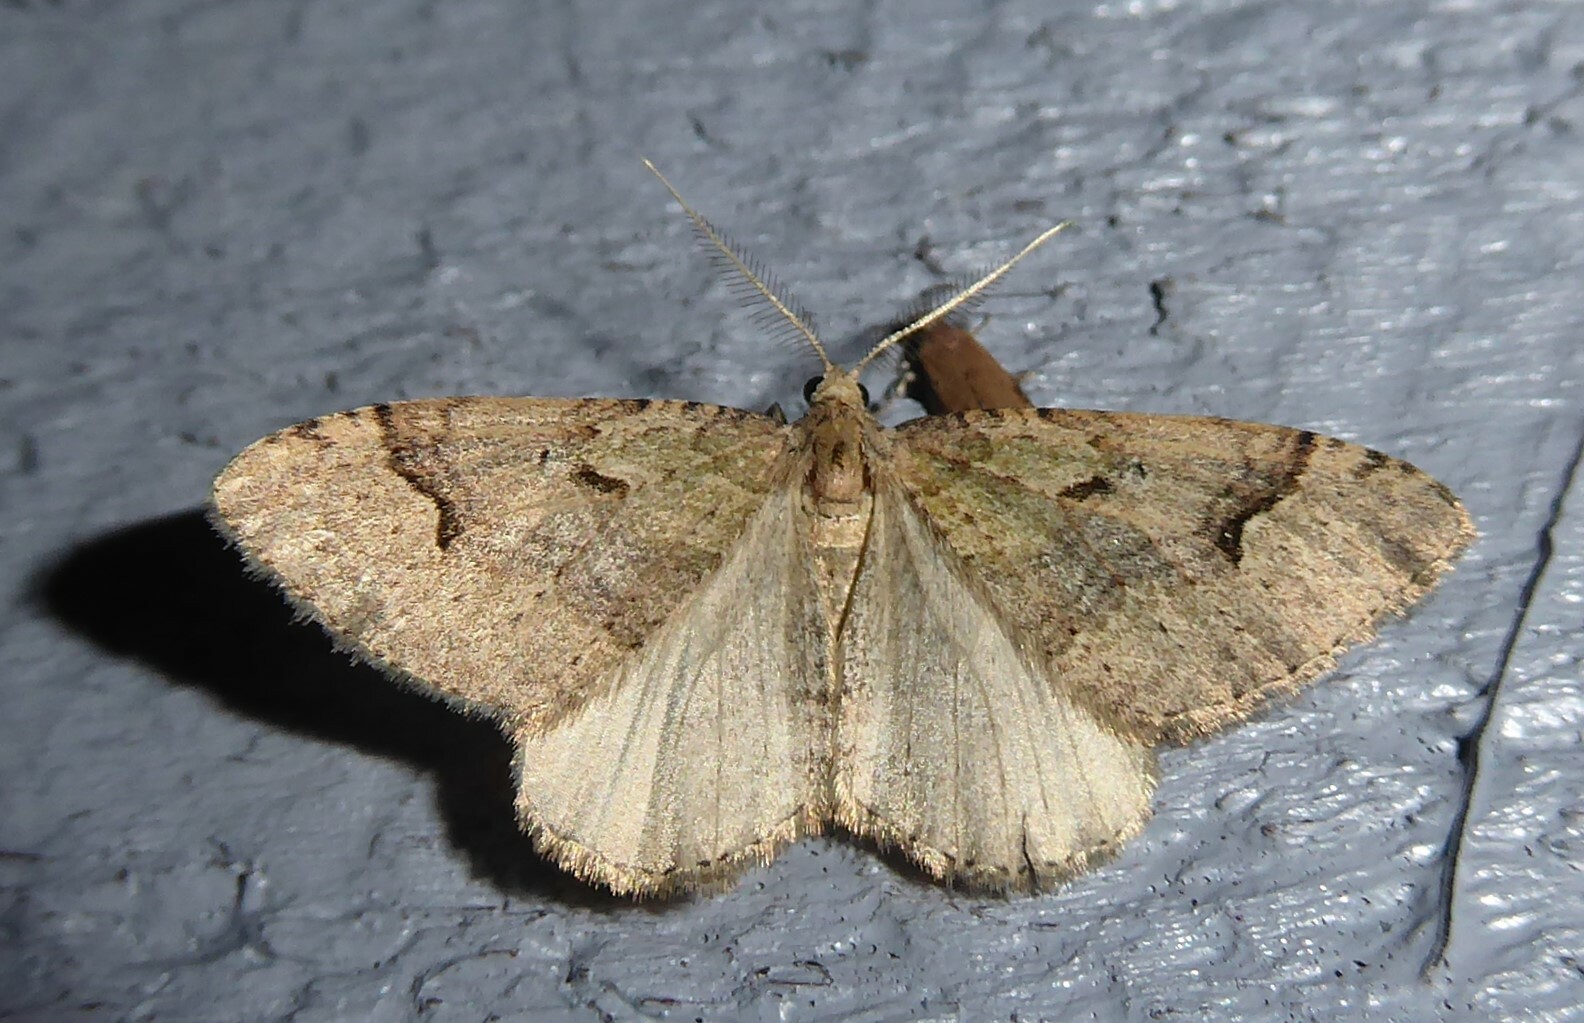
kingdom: Animalia
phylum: Arthropoda
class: Insecta
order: Lepidoptera
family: Geometridae
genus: Epyaxa
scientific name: Epyaxa rosearia
